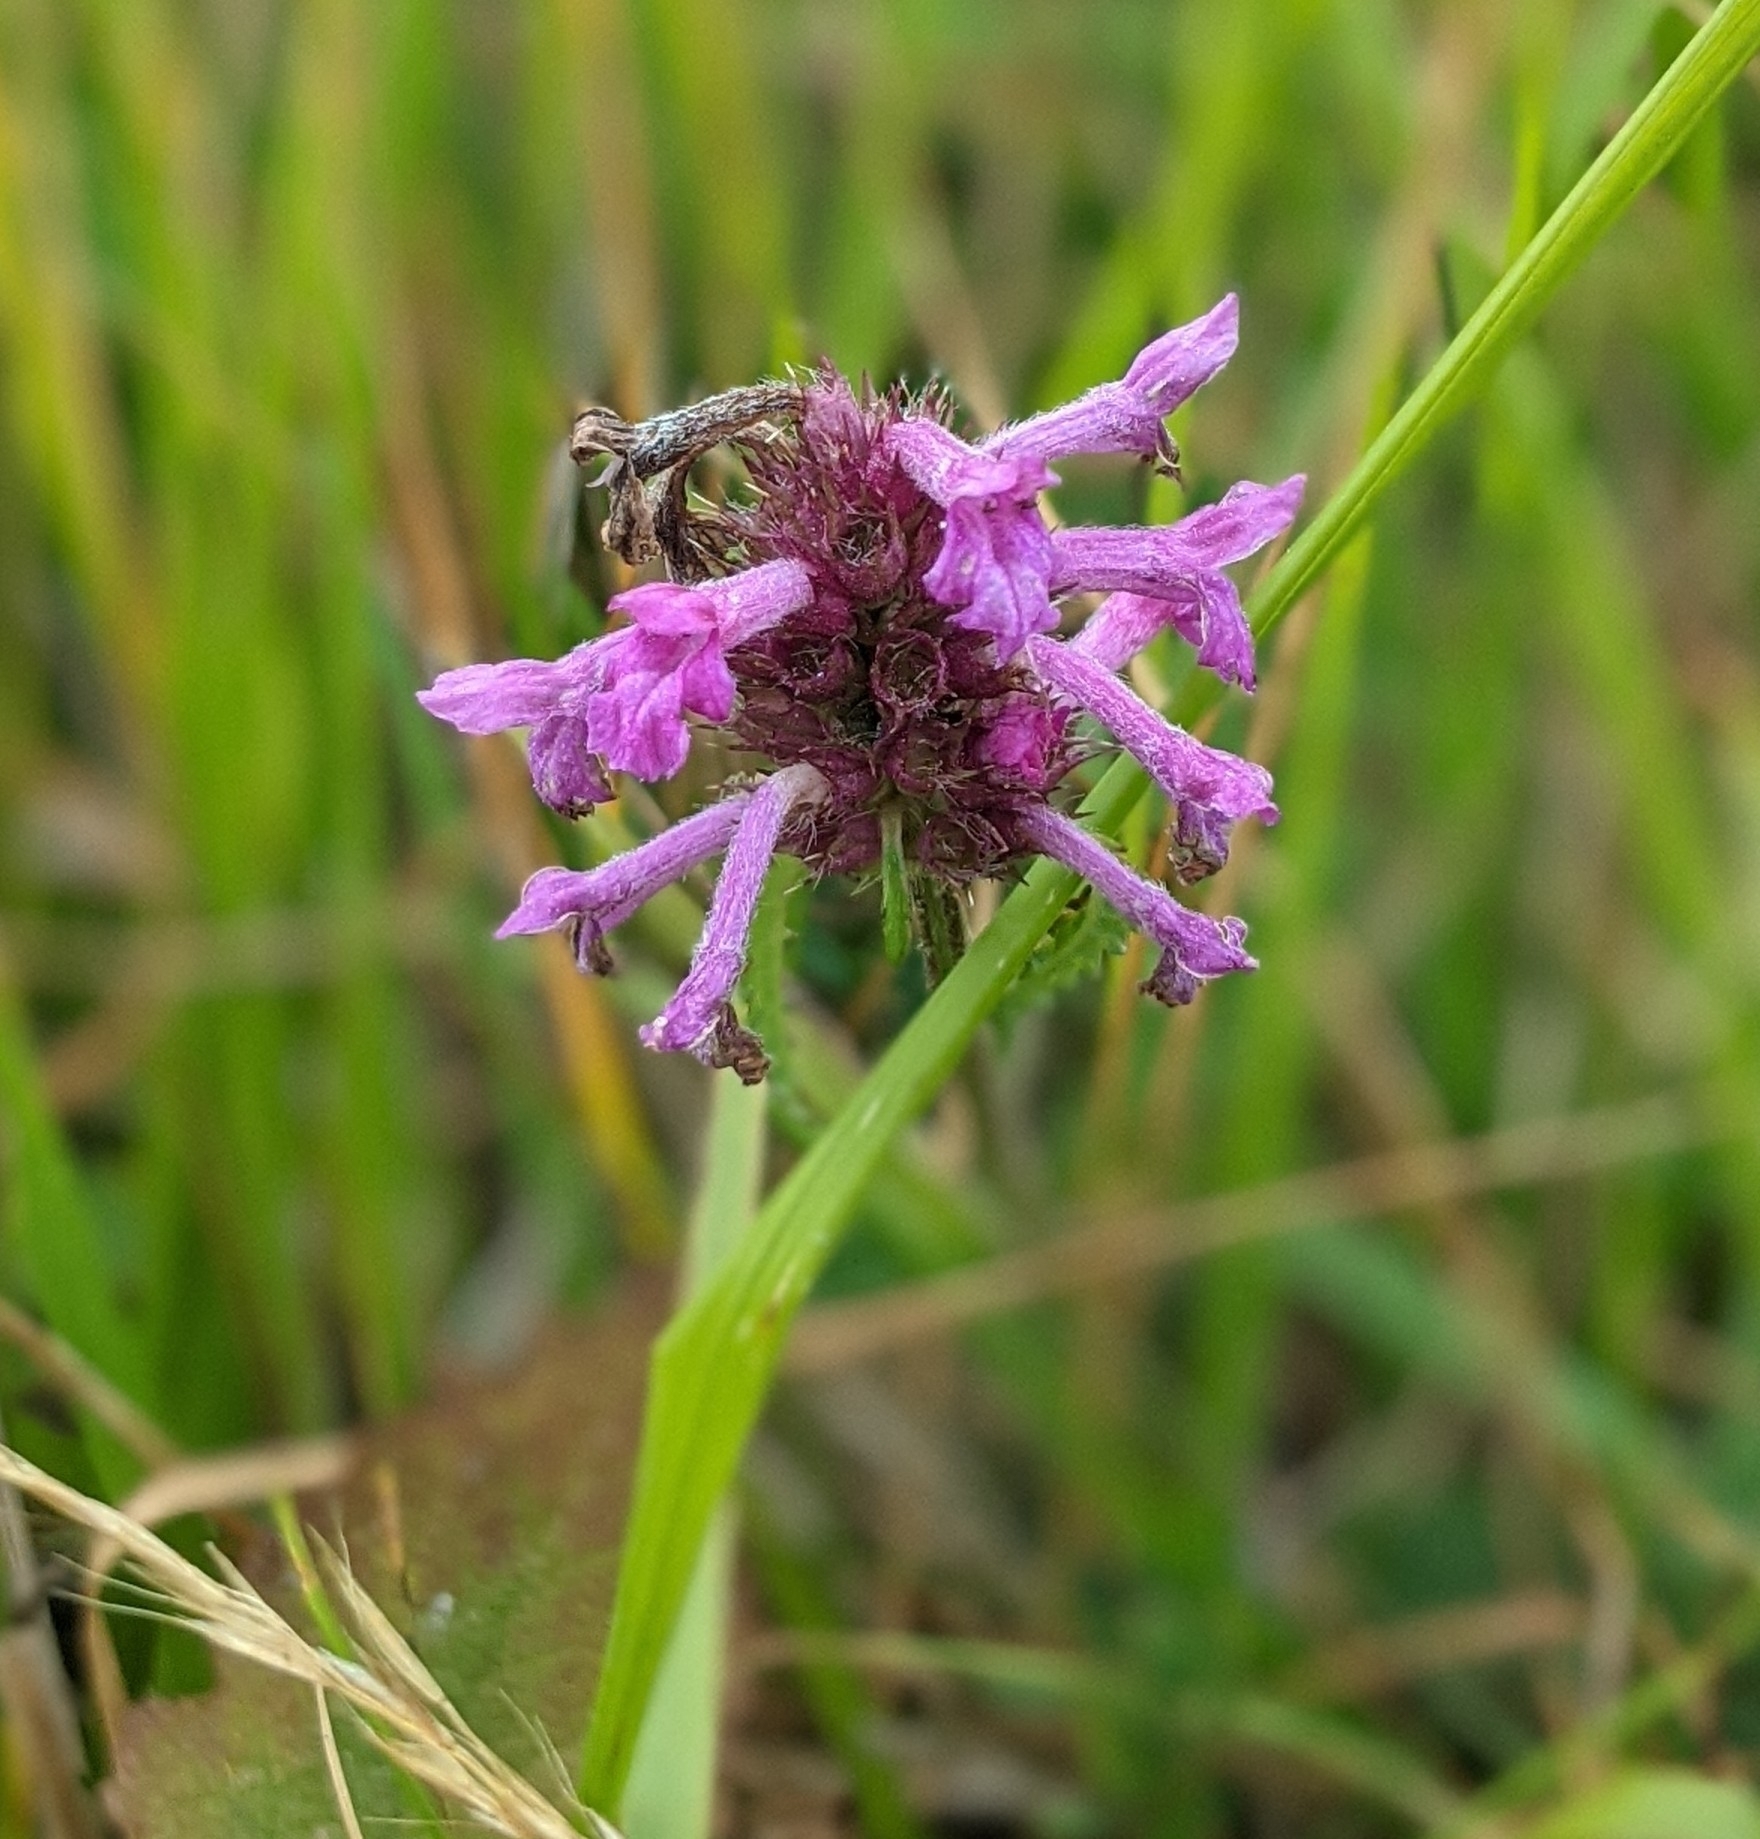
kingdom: Plantae
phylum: Tracheophyta
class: Magnoliopsida
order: Lamiales
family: Lamiaceae
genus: Betonica
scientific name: Betonica officinalis
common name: Bishop's-wort
